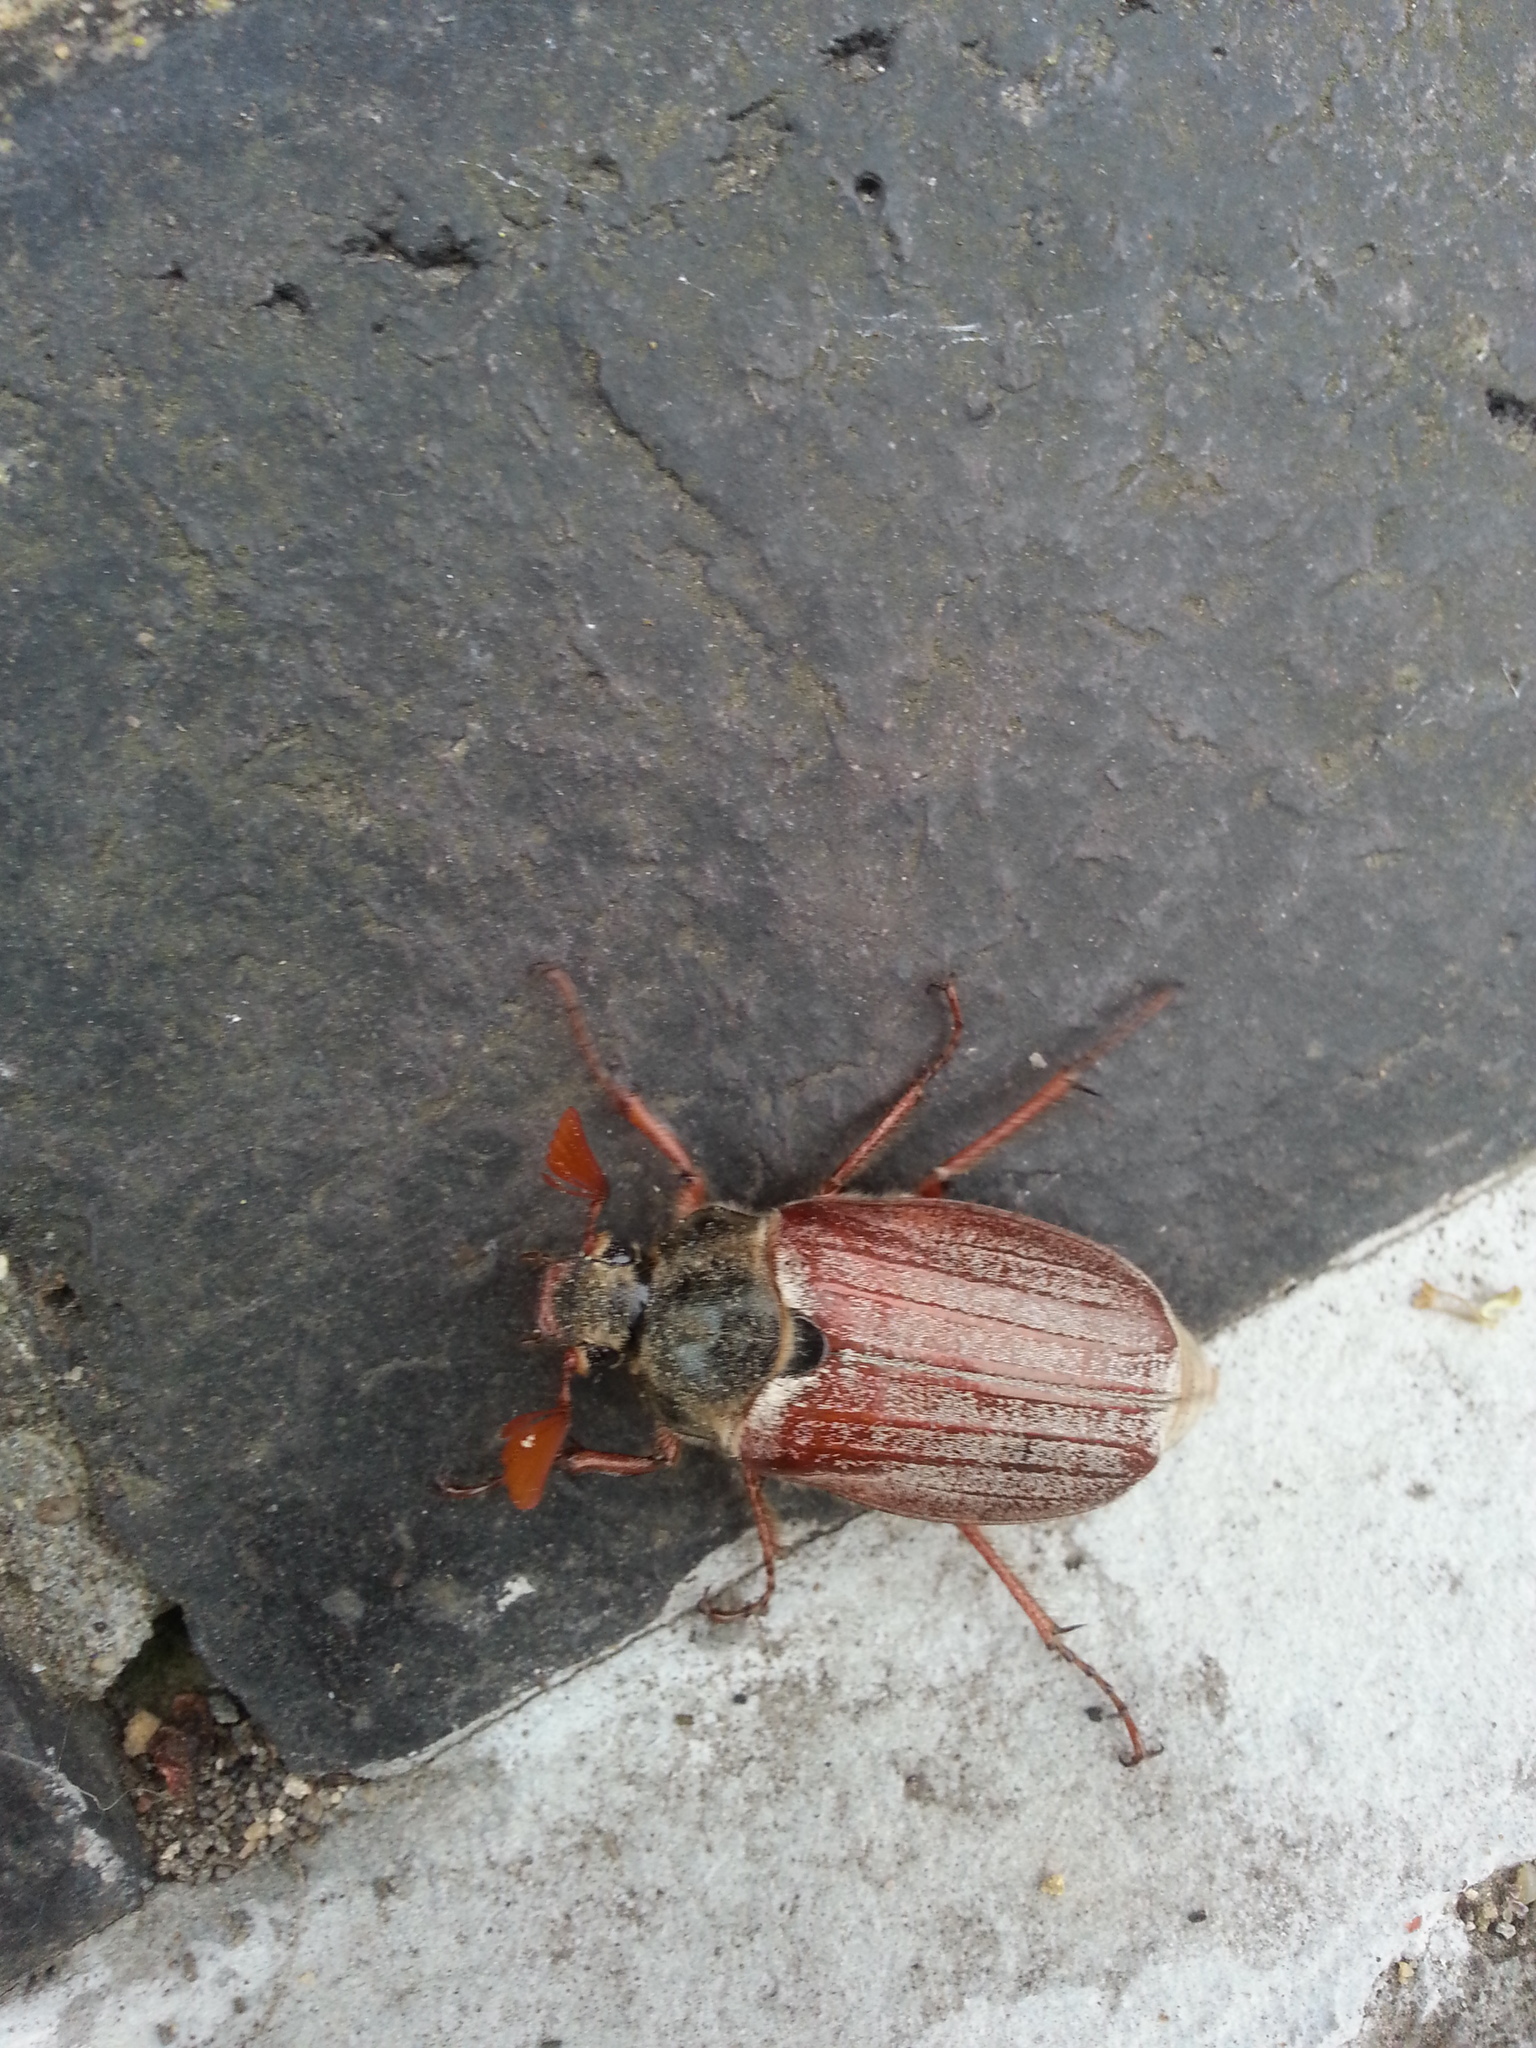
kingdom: Animalia
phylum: Arthropoda
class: Insecta
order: Coleoptera
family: Scarabaeidae
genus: Melolontha
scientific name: Melolontha melolontha
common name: Cockchafer maybeetle
